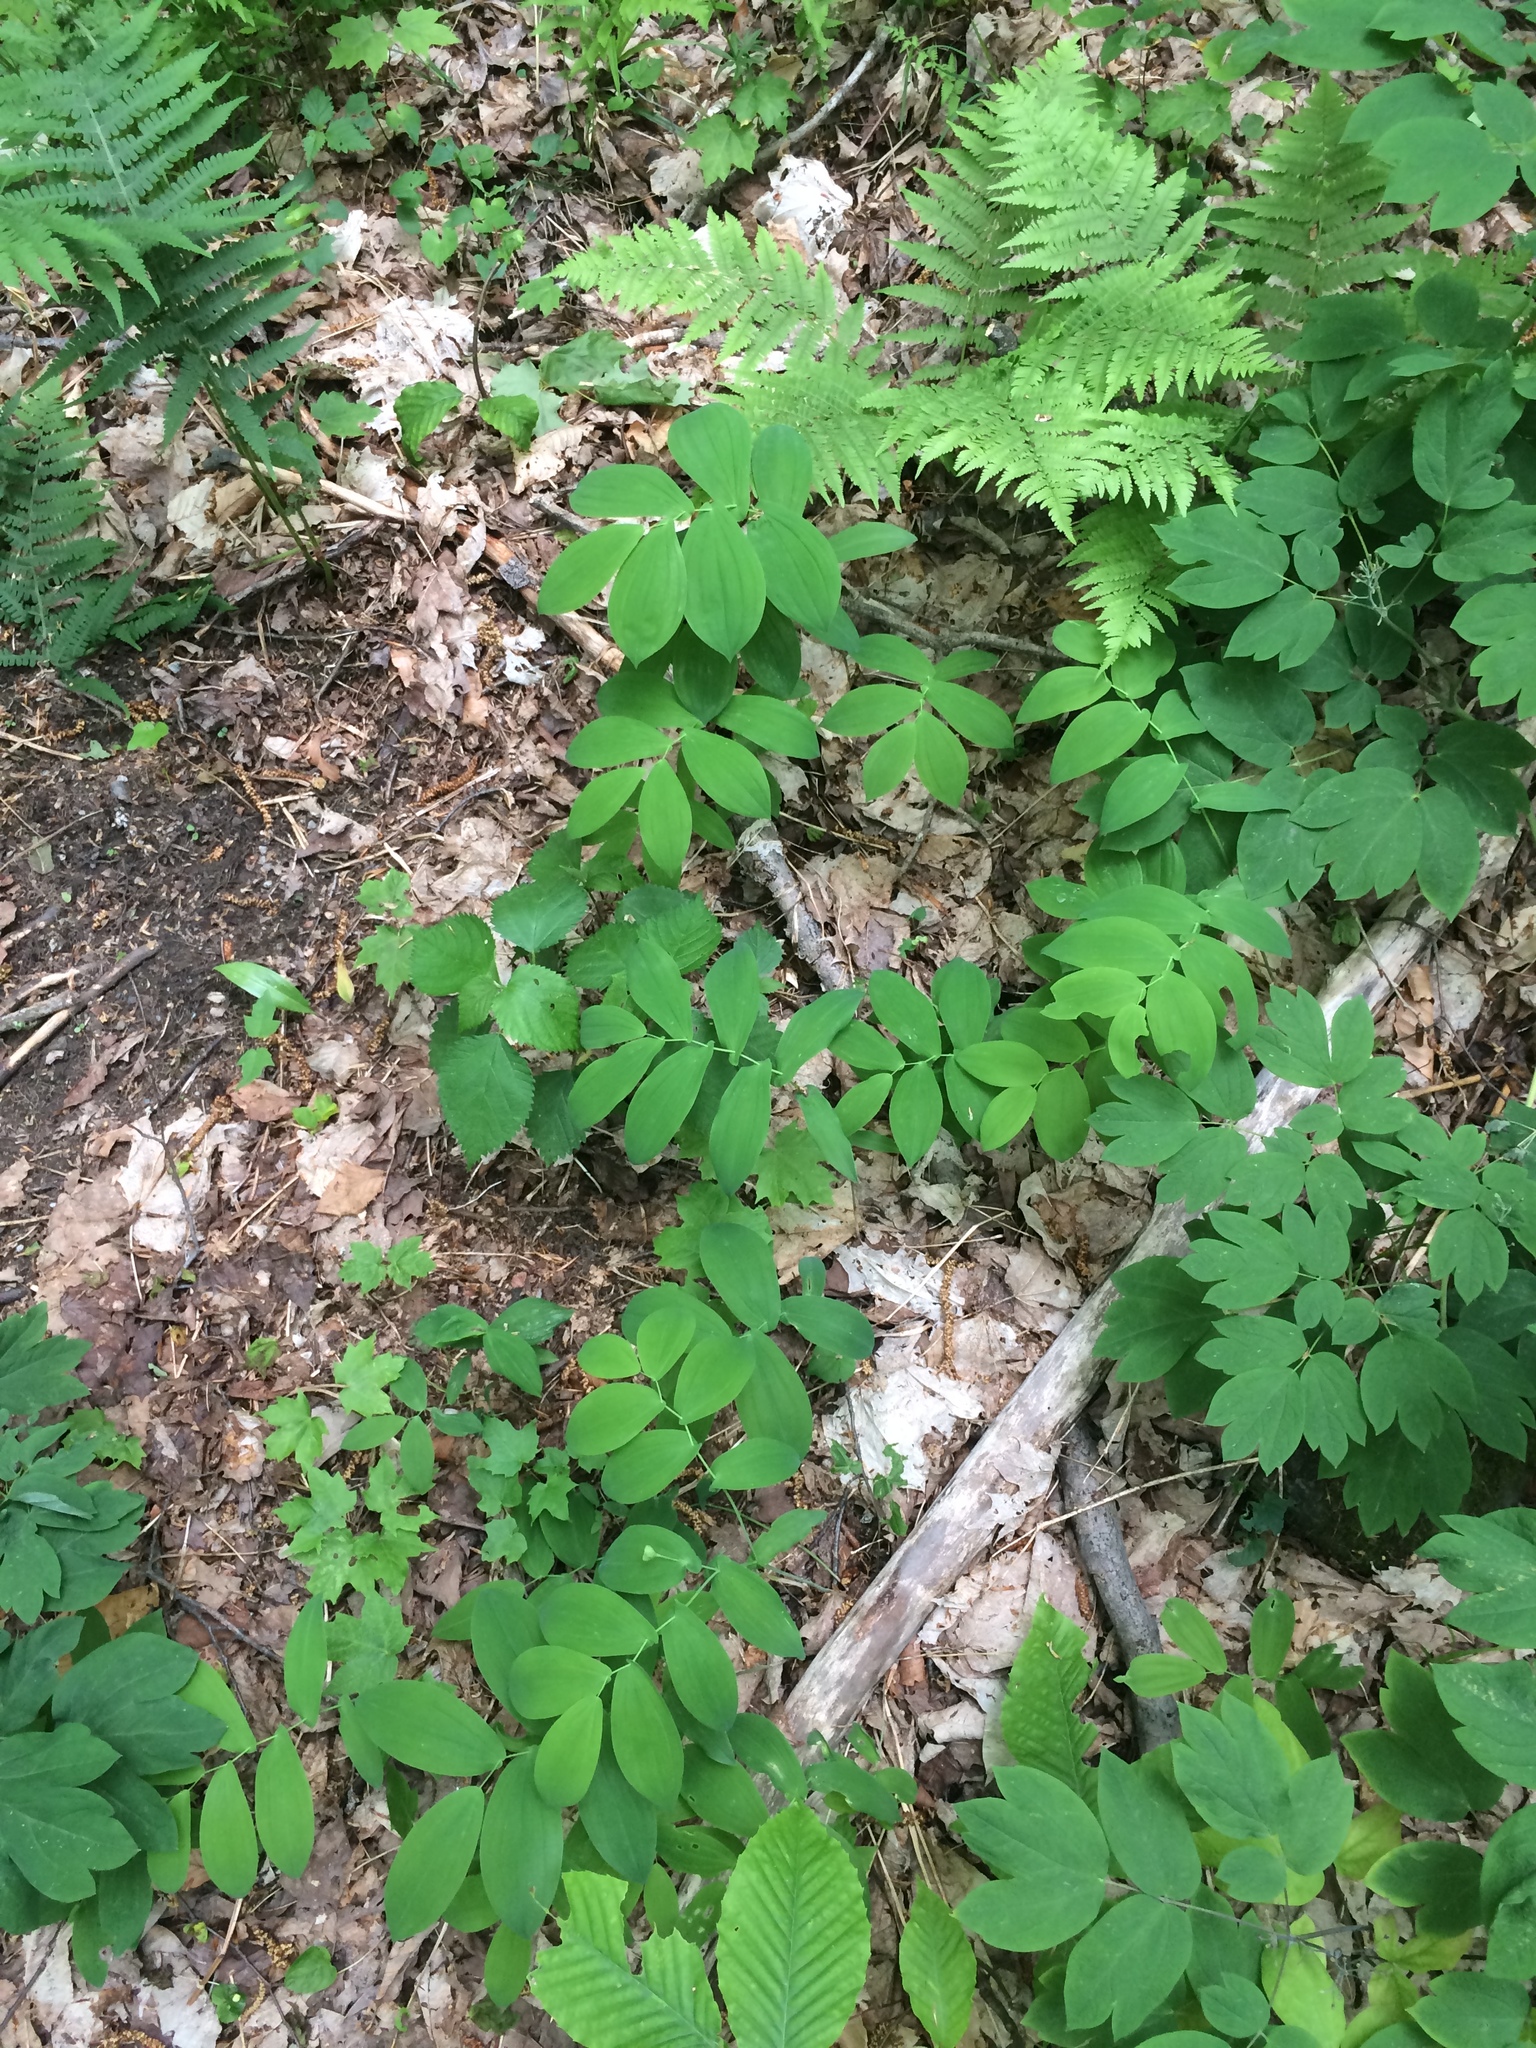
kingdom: Plantae
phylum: Tracheophyta
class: Liliopsida
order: Liliales
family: Colchicaceae
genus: Uvularia
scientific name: Uvularia grandiflora
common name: Bellwort
